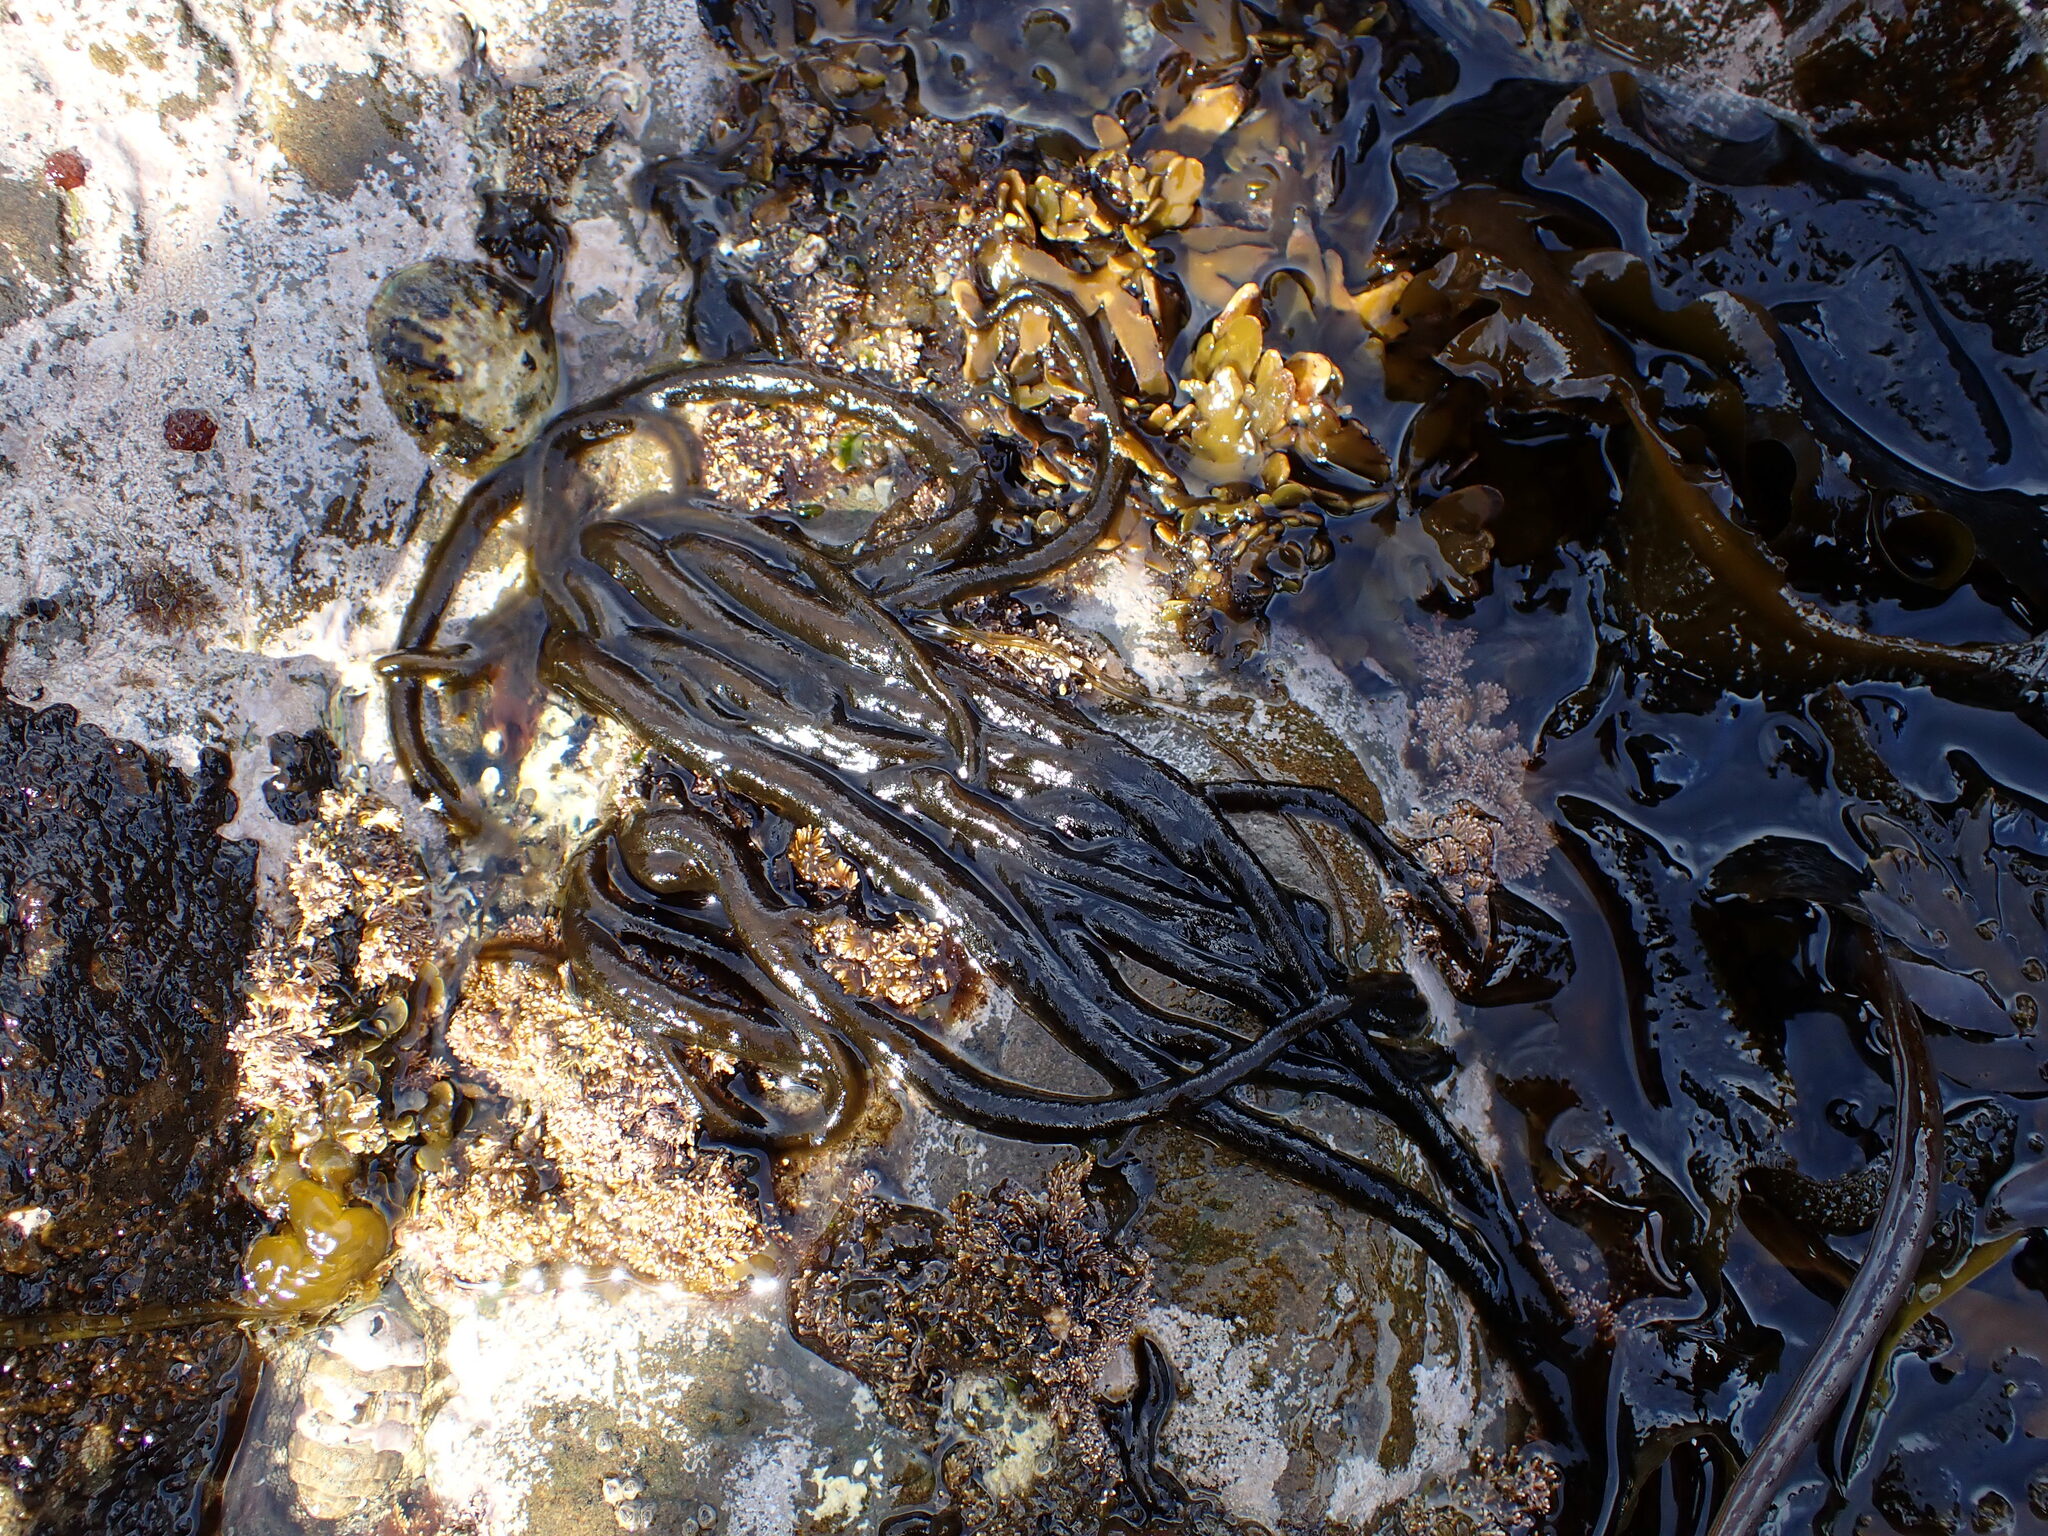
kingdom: Chromista
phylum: Ochrophyta
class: Phaeophyceae
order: Ectocarpales
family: Chordariaceae
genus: Myriogloea
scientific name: Myriogloea intestinalis
